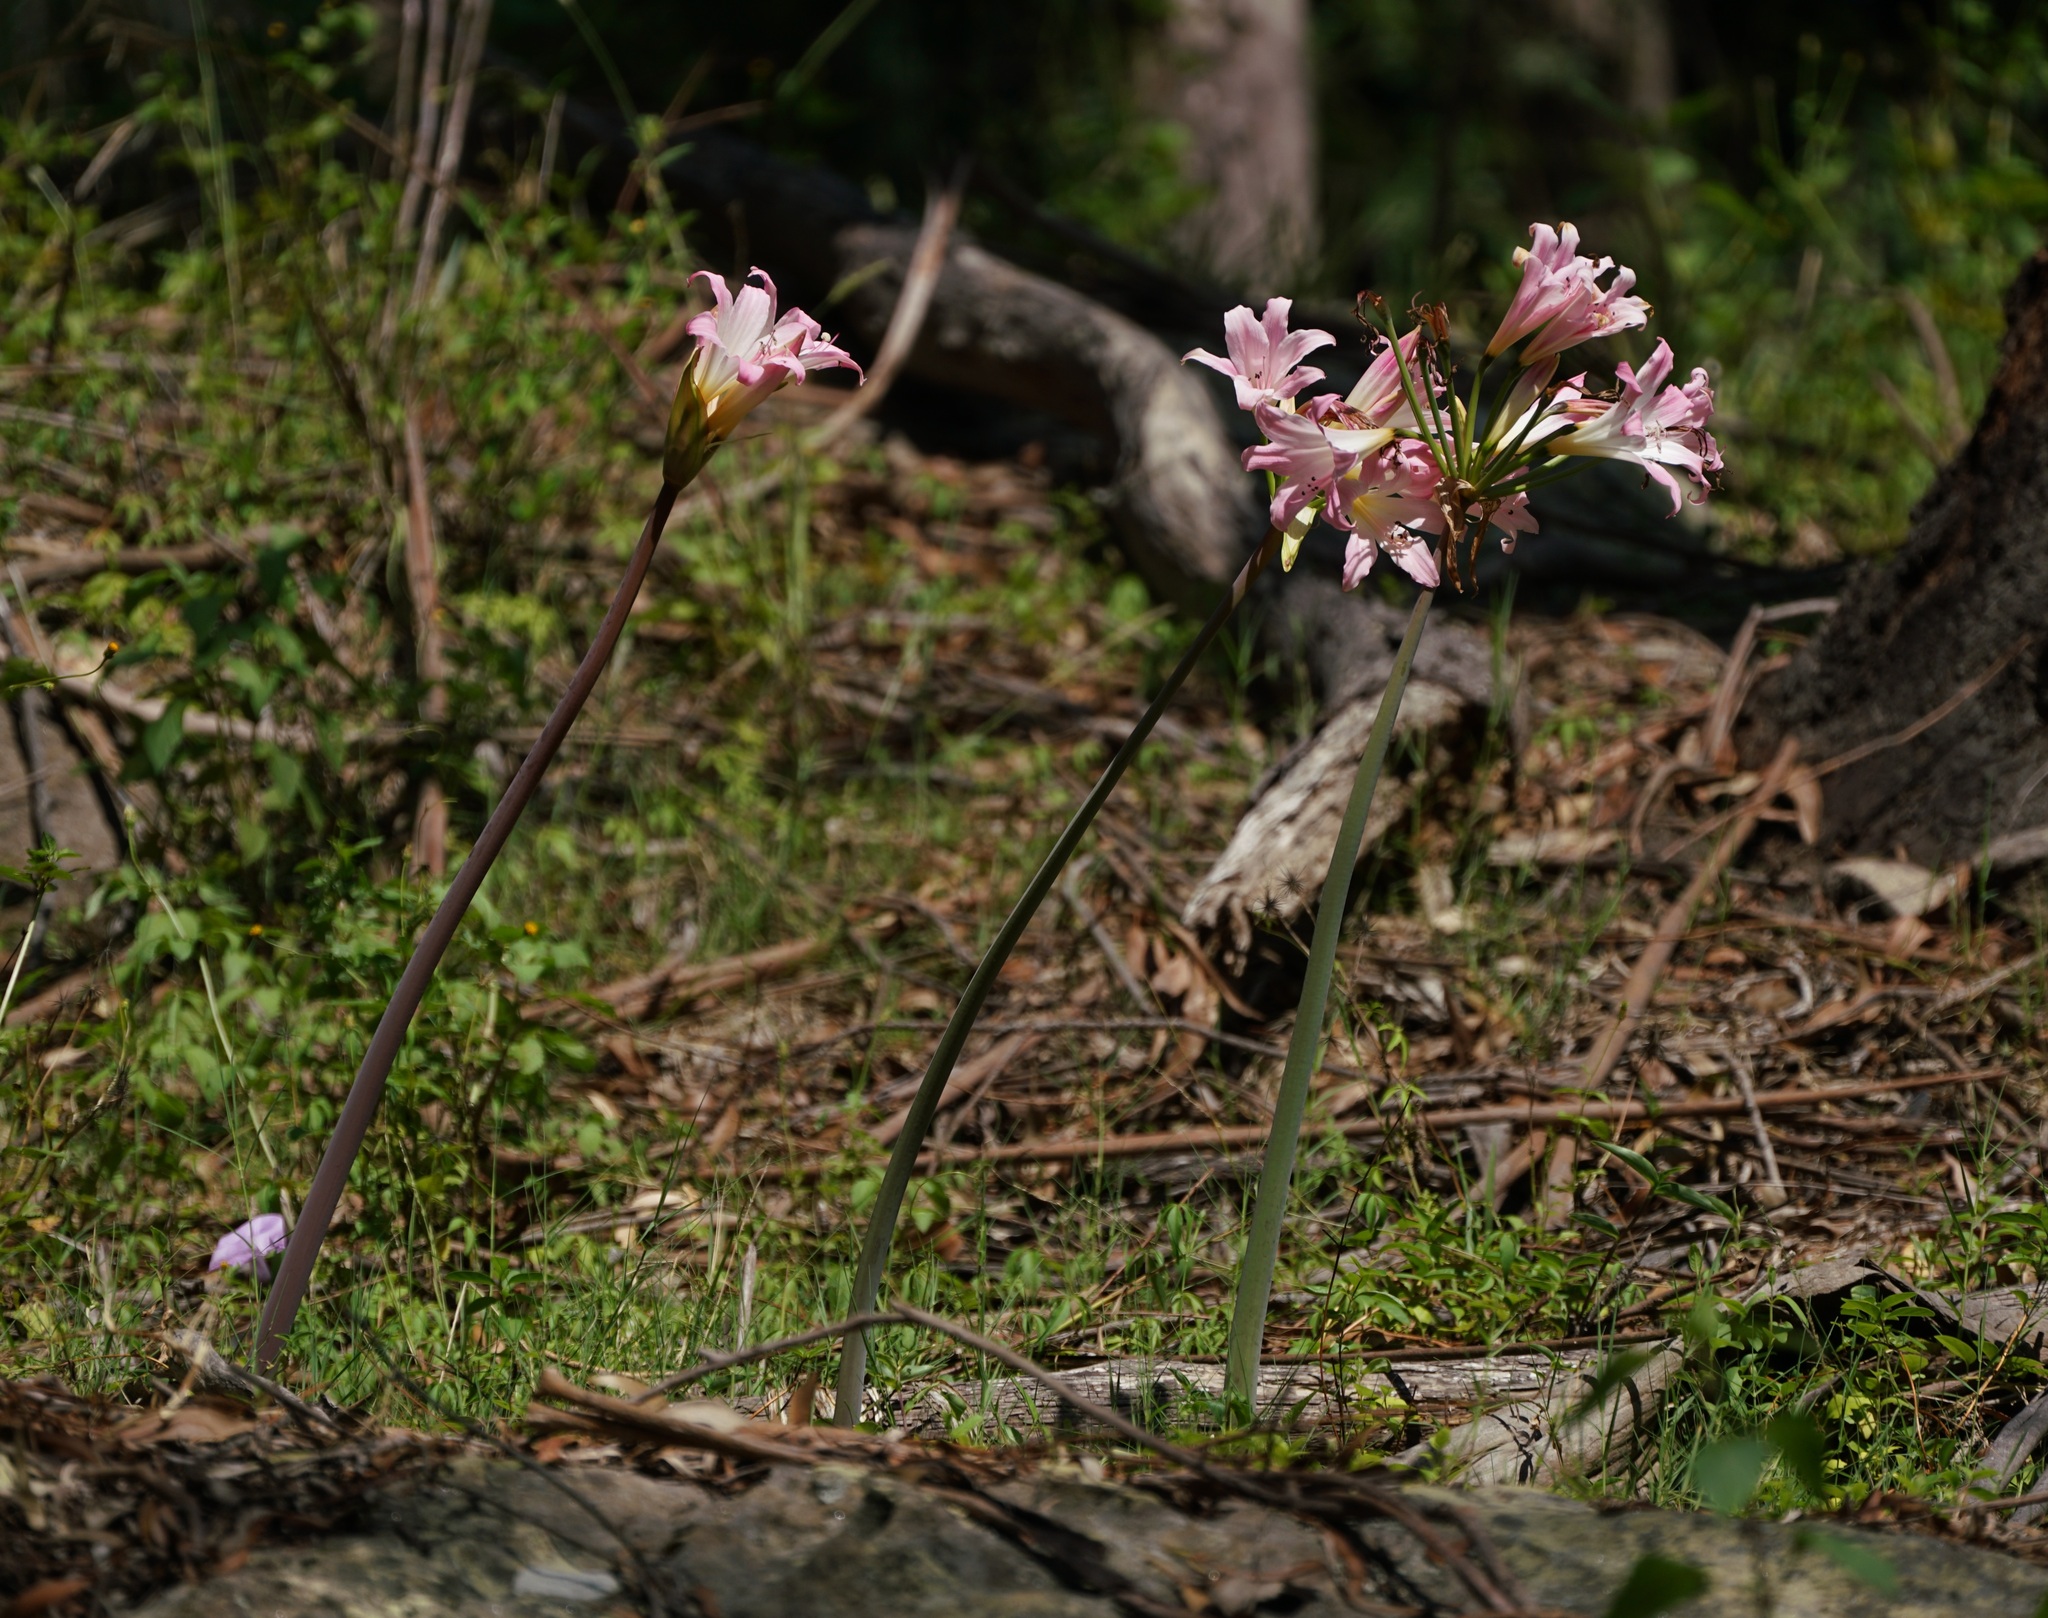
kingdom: Plantae
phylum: Tracheophyta
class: Liliopsida
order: Asparagales
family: Amaryllidaceae
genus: Amaryllis
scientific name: Amaryllis belladonna
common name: Jersey lily
